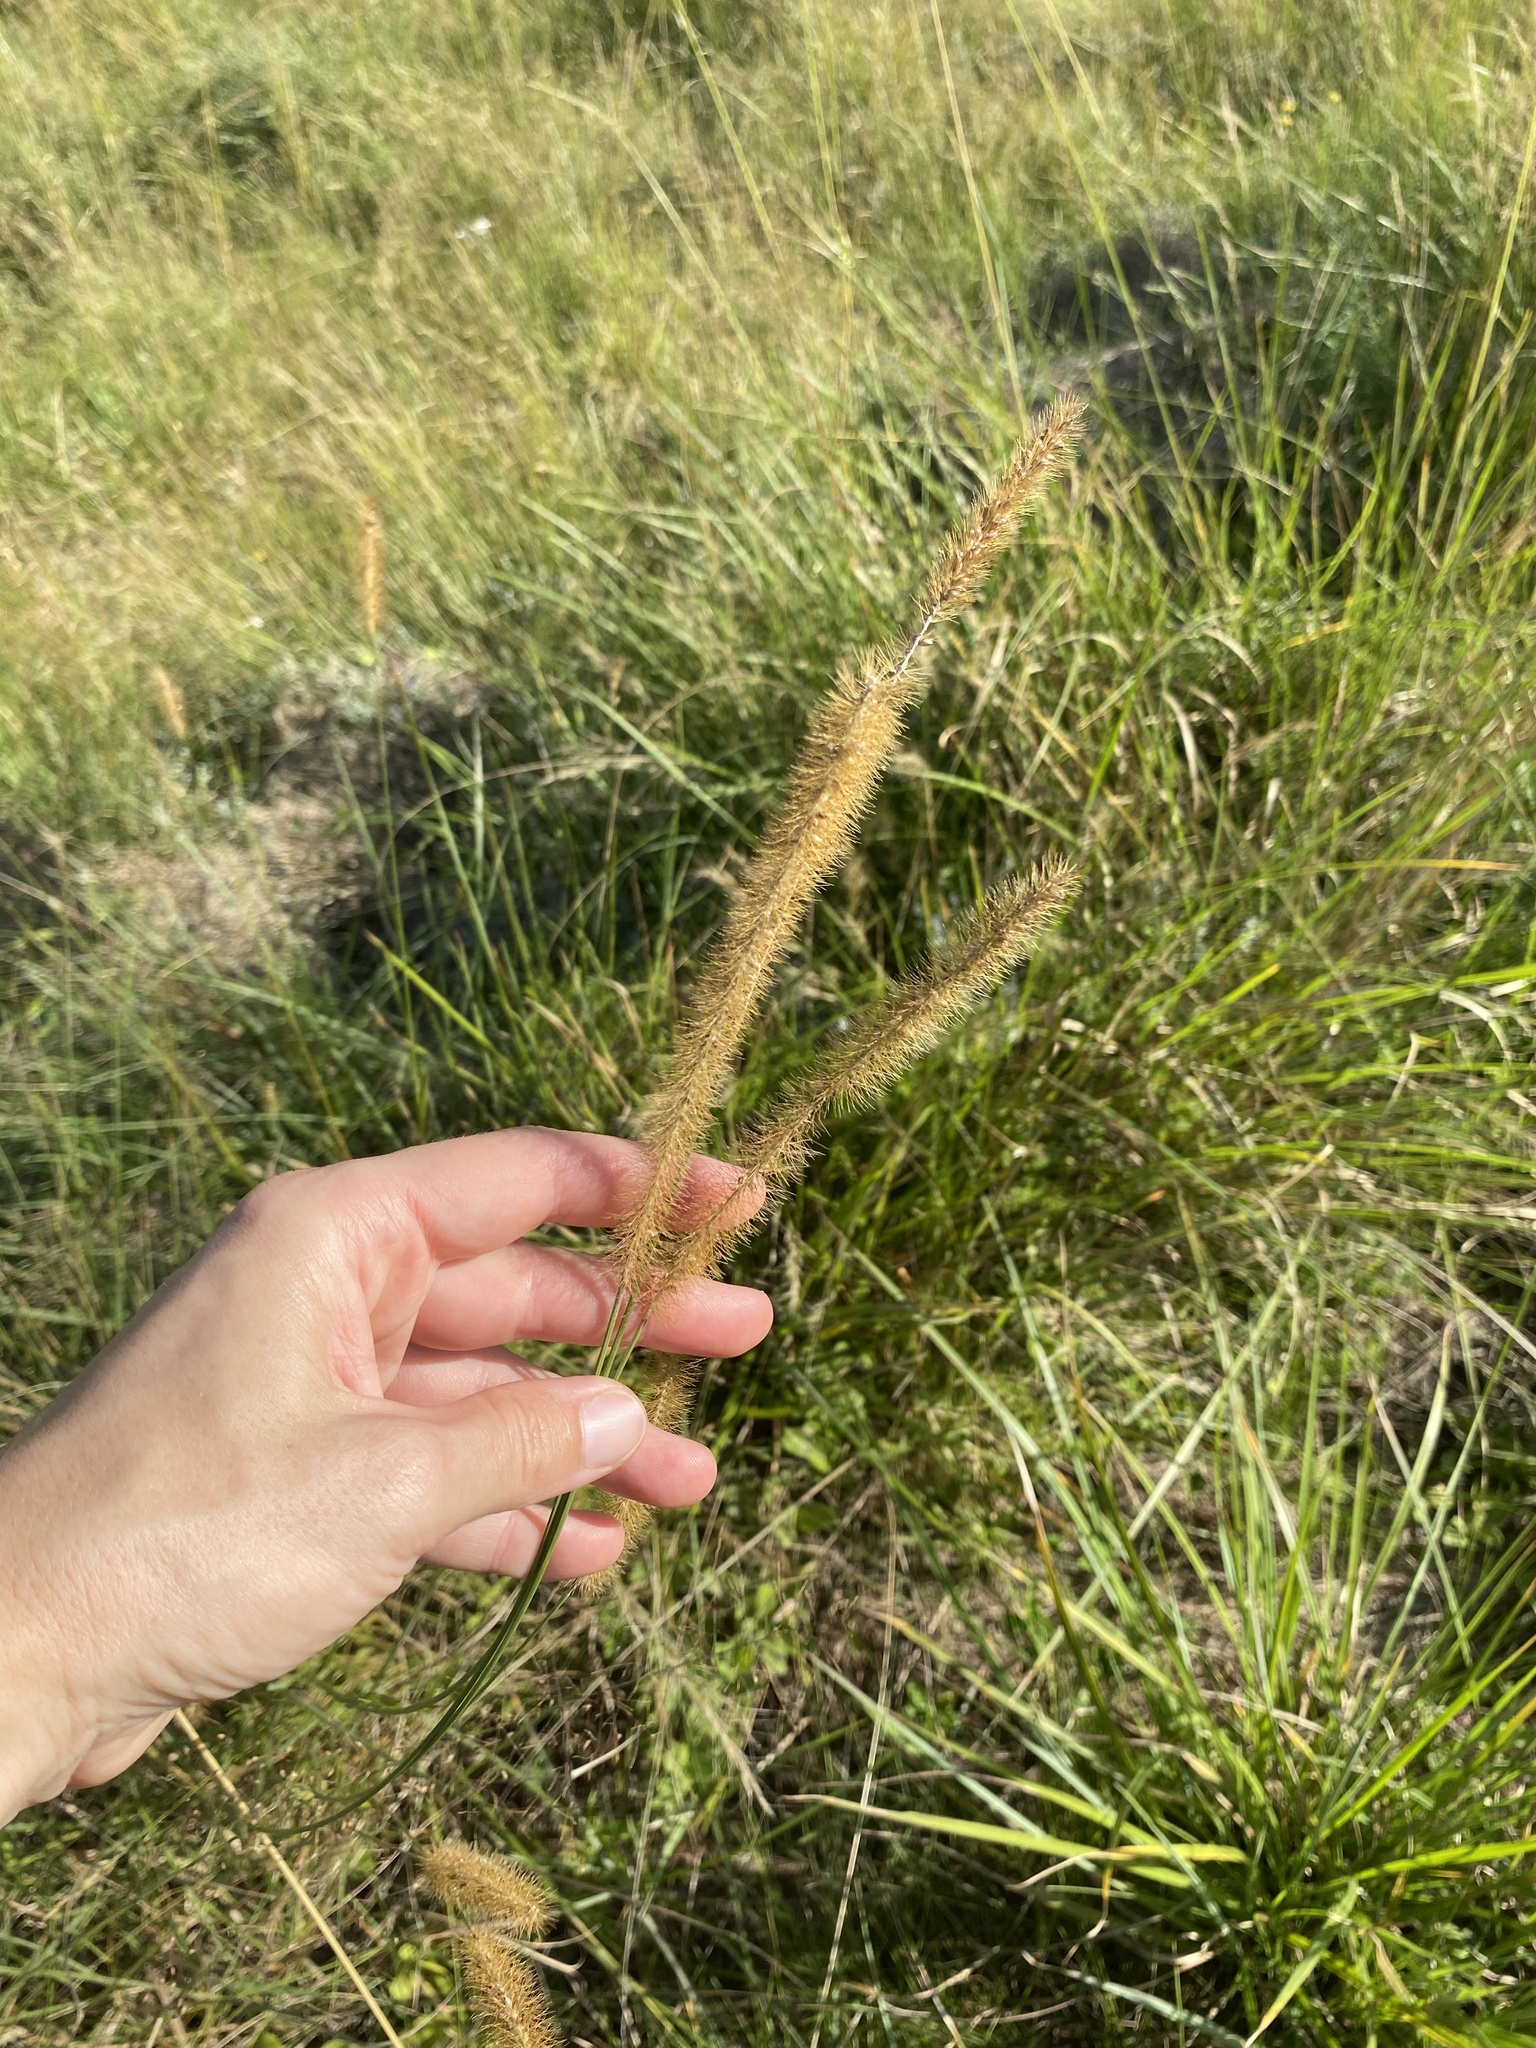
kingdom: Plantae
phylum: Tracheophyta
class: Liliopsida
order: Poales
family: Poaceae
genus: Setaria
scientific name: Setaria sphacelata
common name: African bristlegrass
